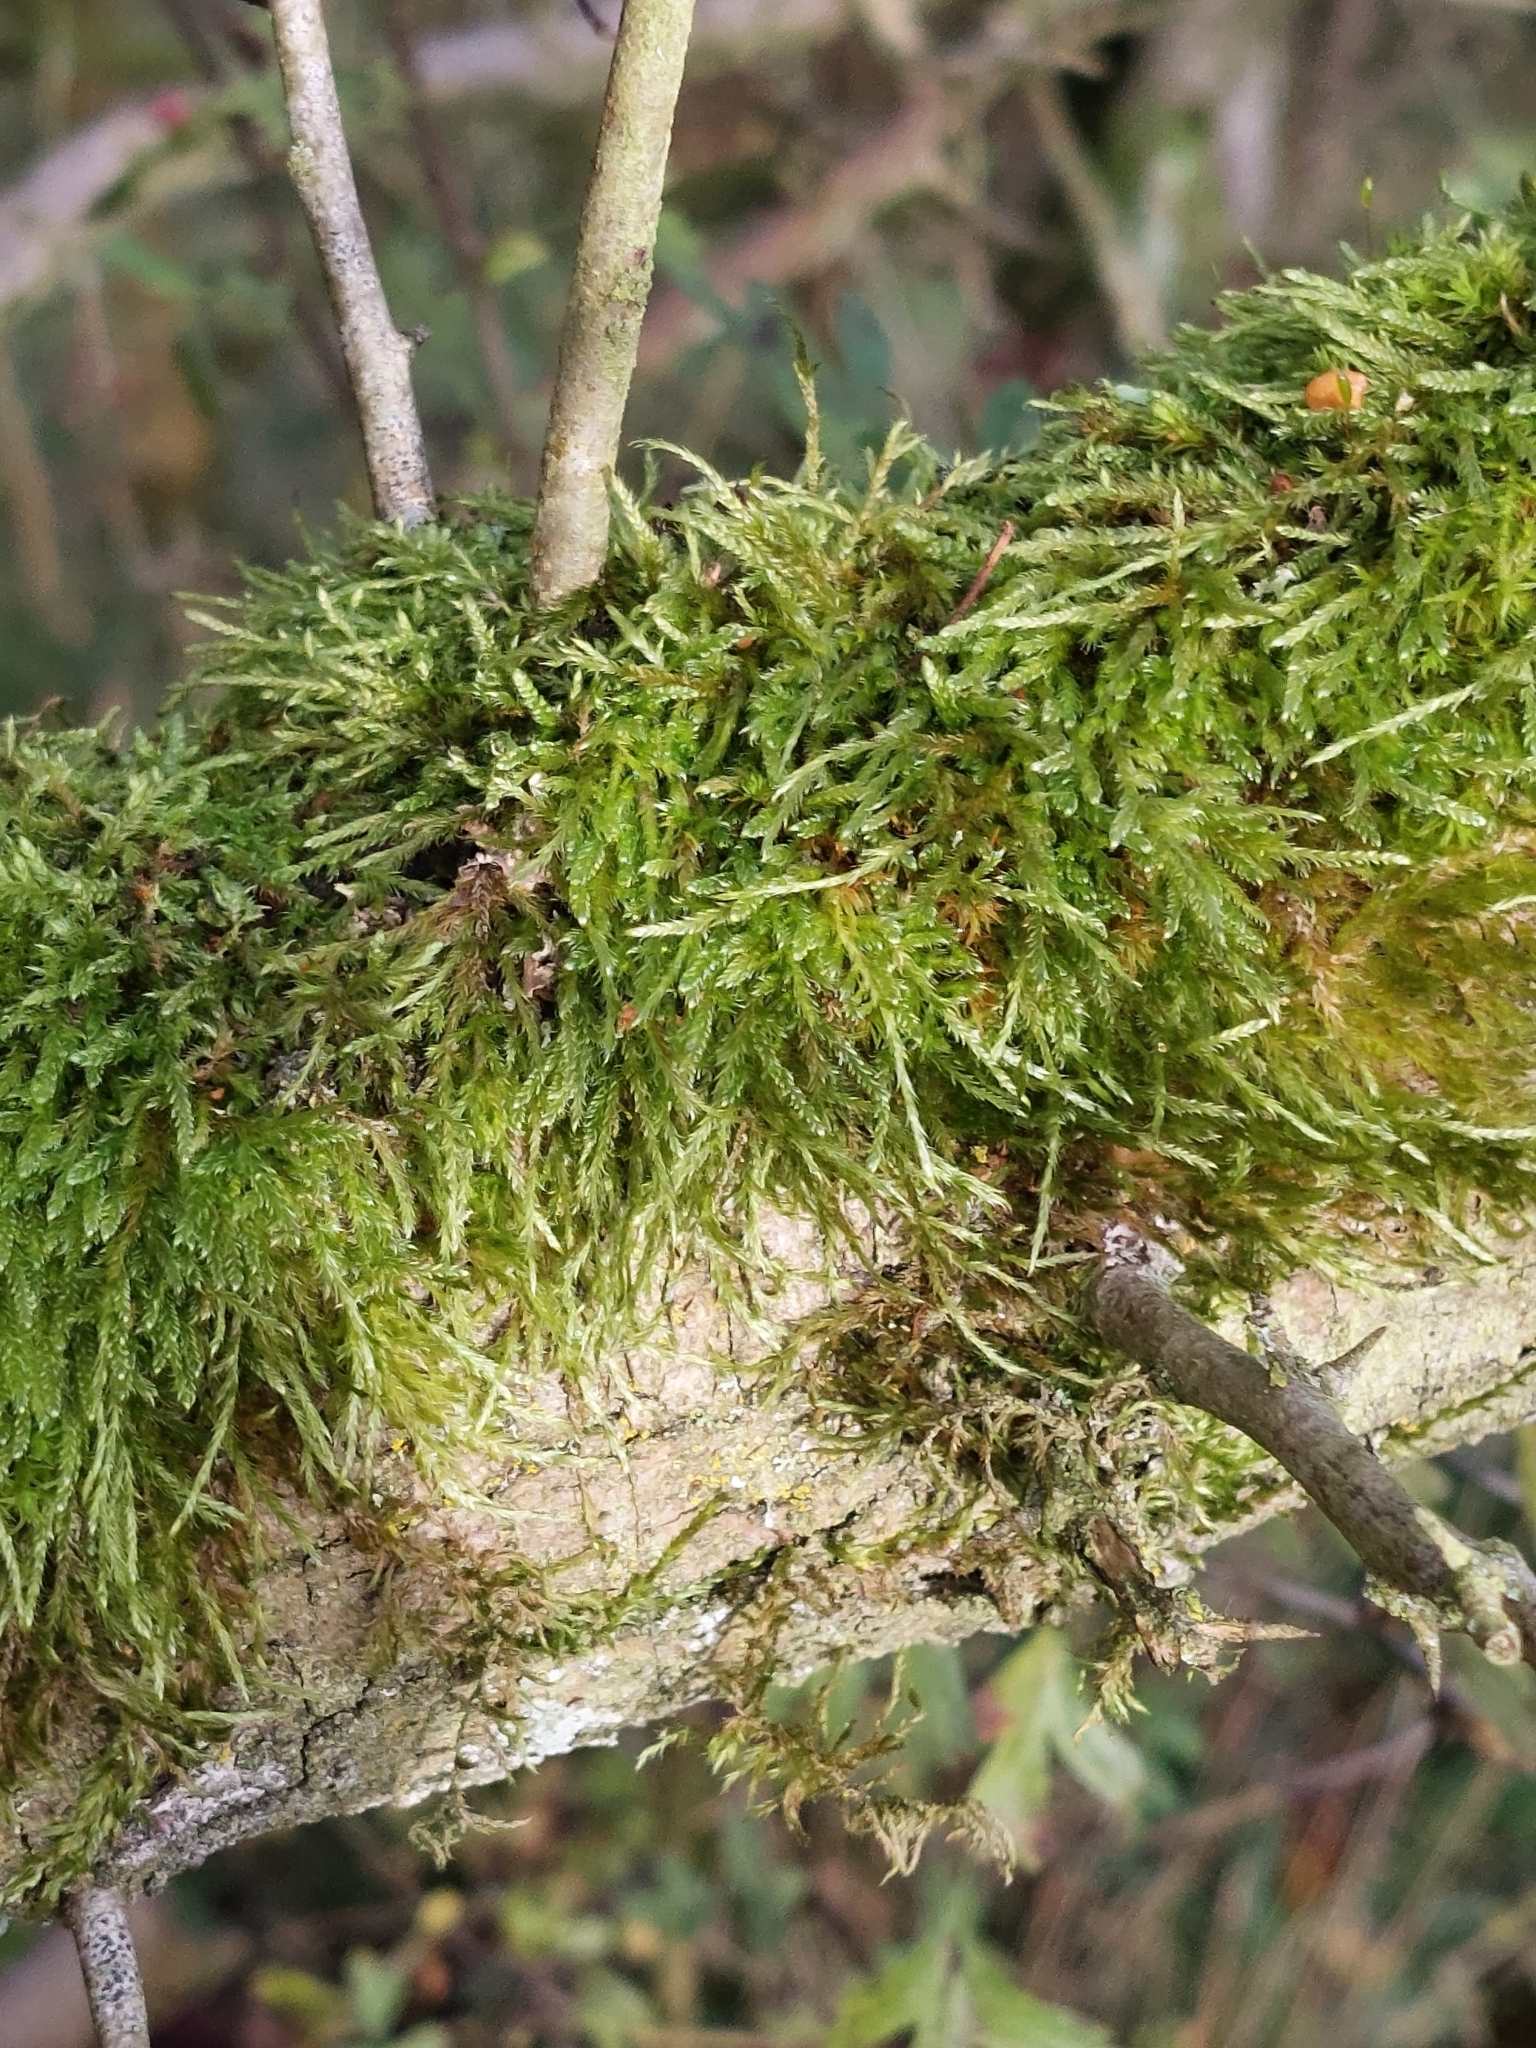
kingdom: Plantae
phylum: Bryophyta
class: Bryopsida
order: Hypnales
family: Hypnaceae
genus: Hypnum
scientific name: Hypnum cupressiforme
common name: Cypress-leaved plait-moss
